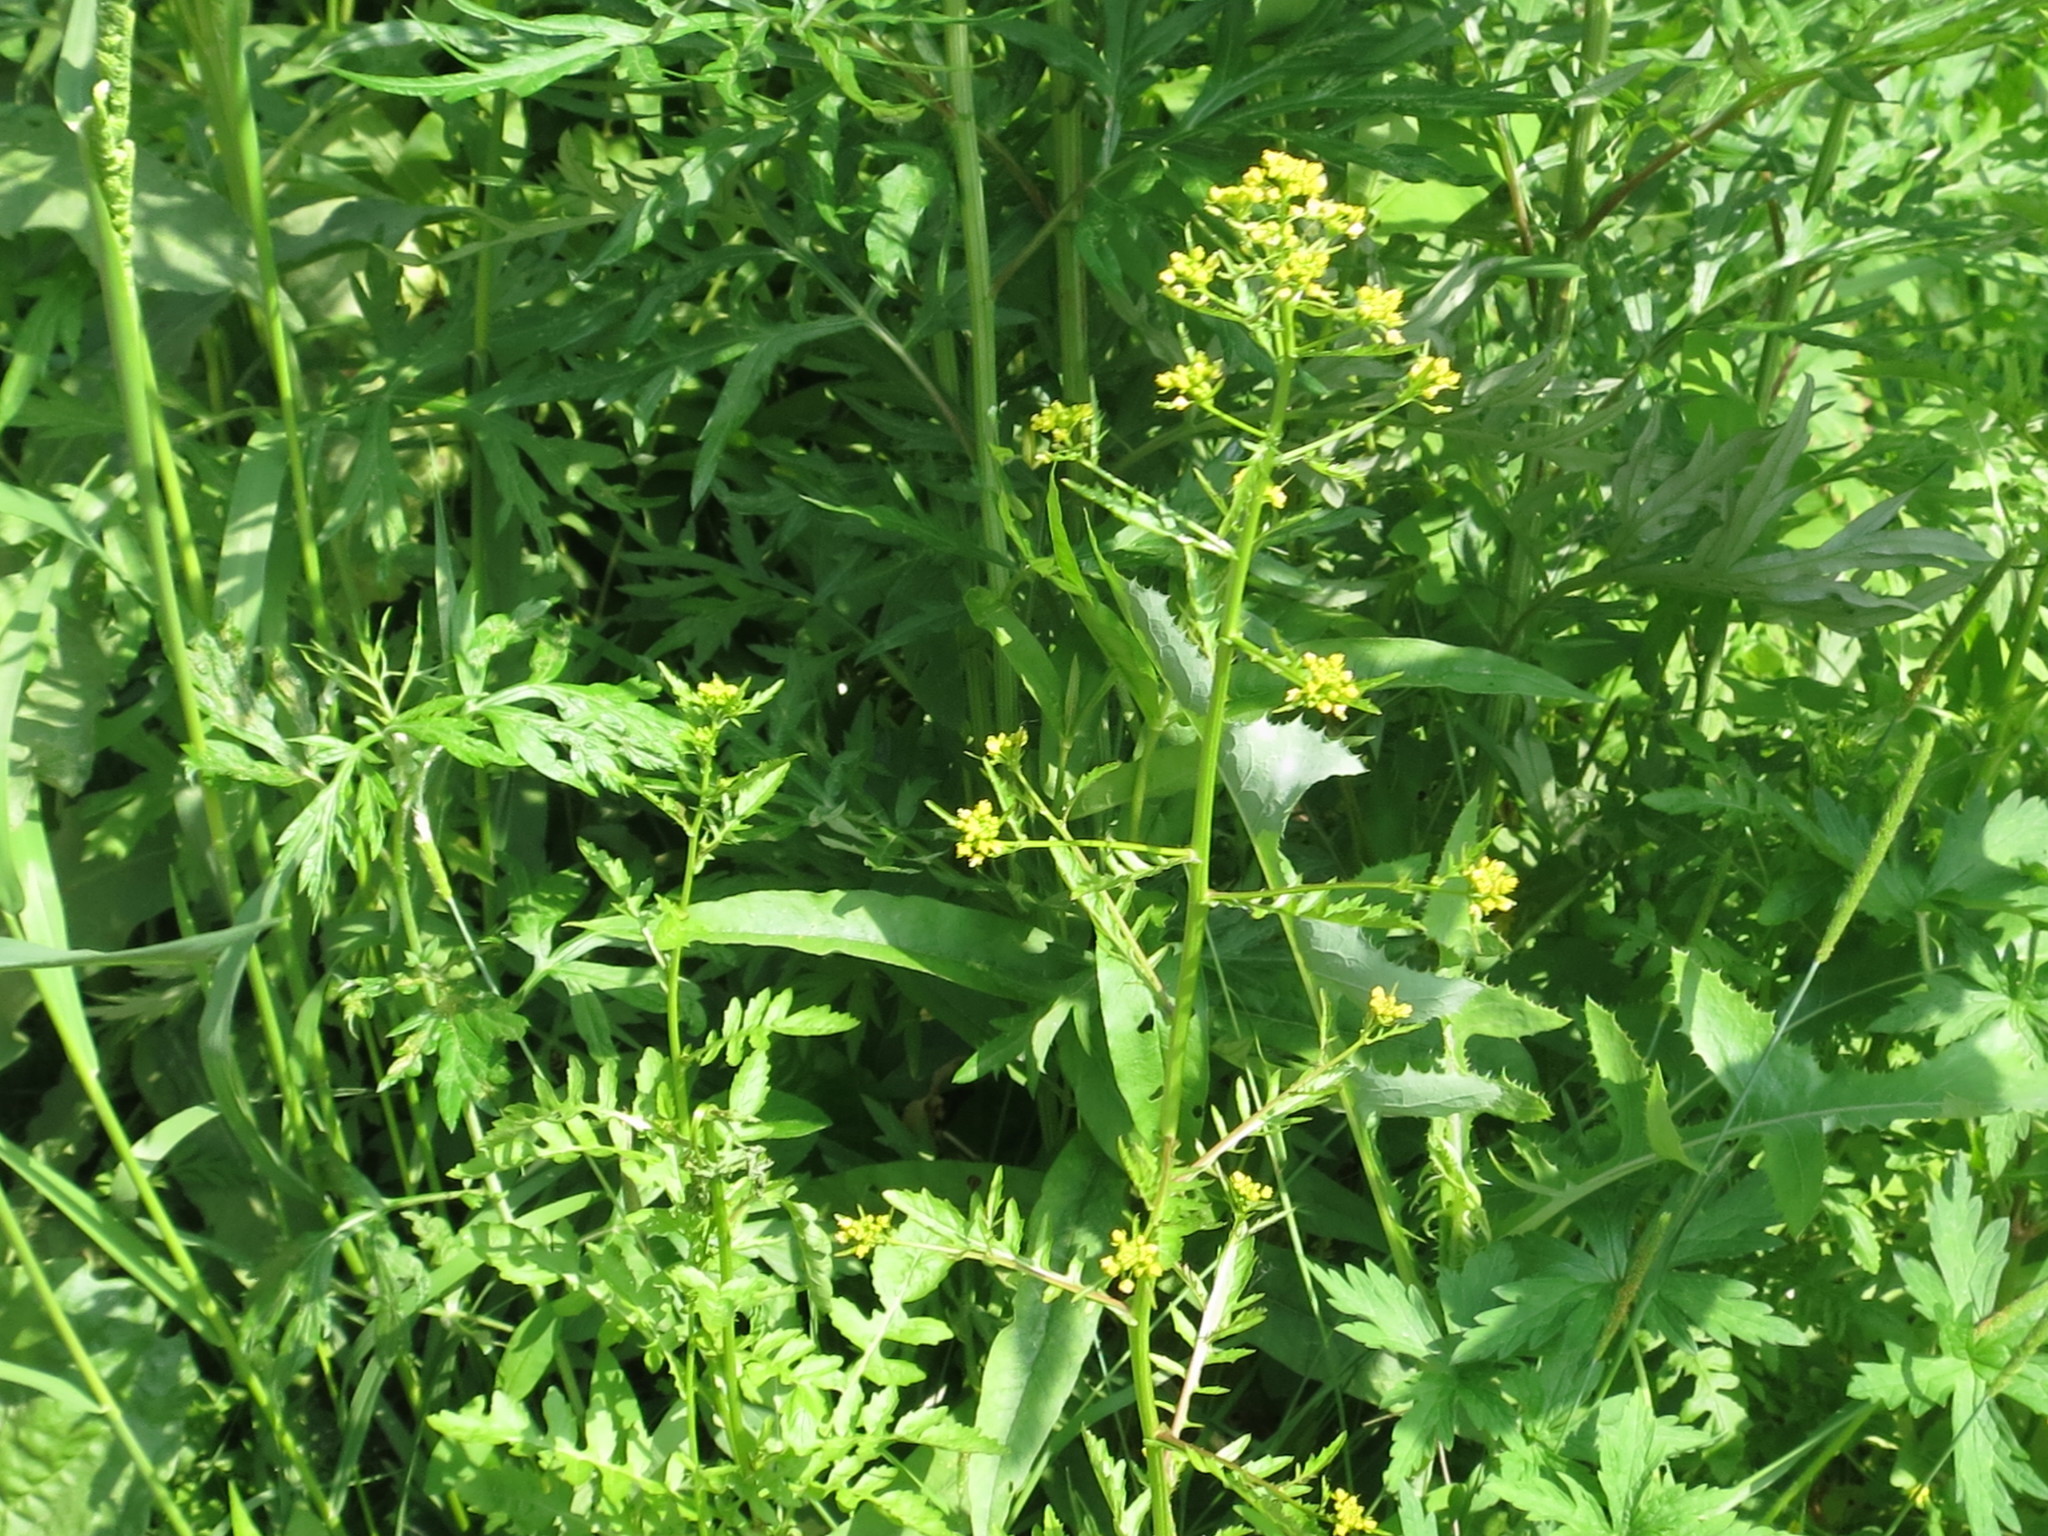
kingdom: Plantae
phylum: Tracheophyta
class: Magnoliopsida
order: Brassicales
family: Brassicaceae
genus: Rorippa
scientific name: Rorippa palustris
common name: Marsh yellow-cress
